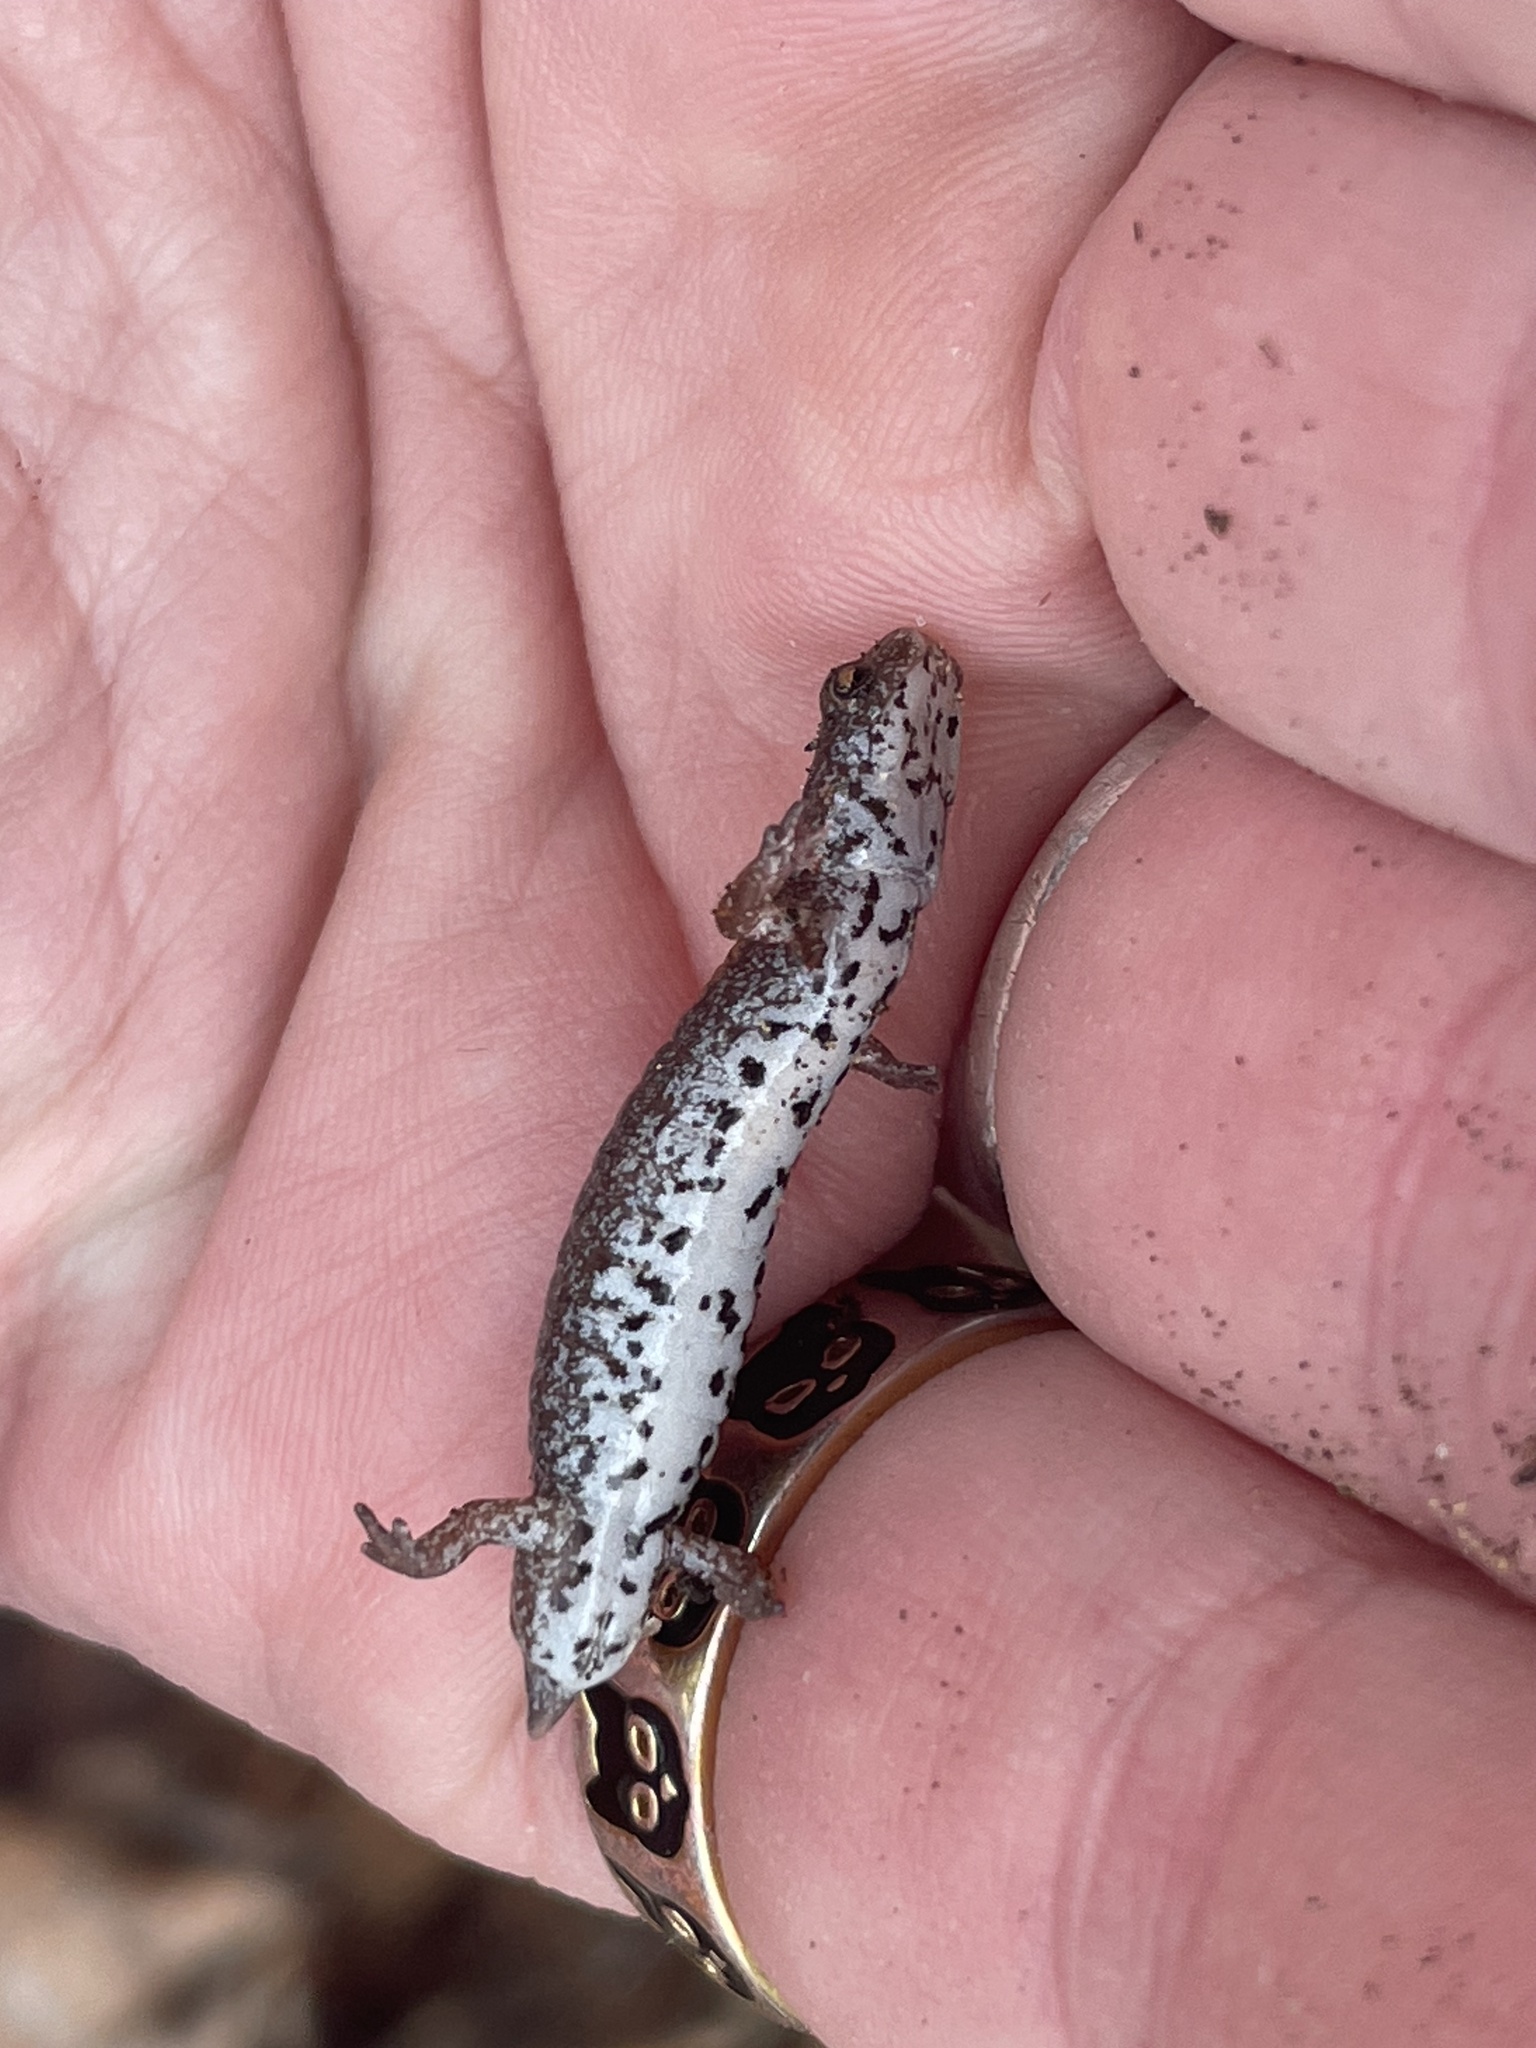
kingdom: Animalia
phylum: Chordata
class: Amphibia
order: Caudata
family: Plethodontidae
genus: Hemidactylium
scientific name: Hemidactylium scutatum
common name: Four-toed salamander
